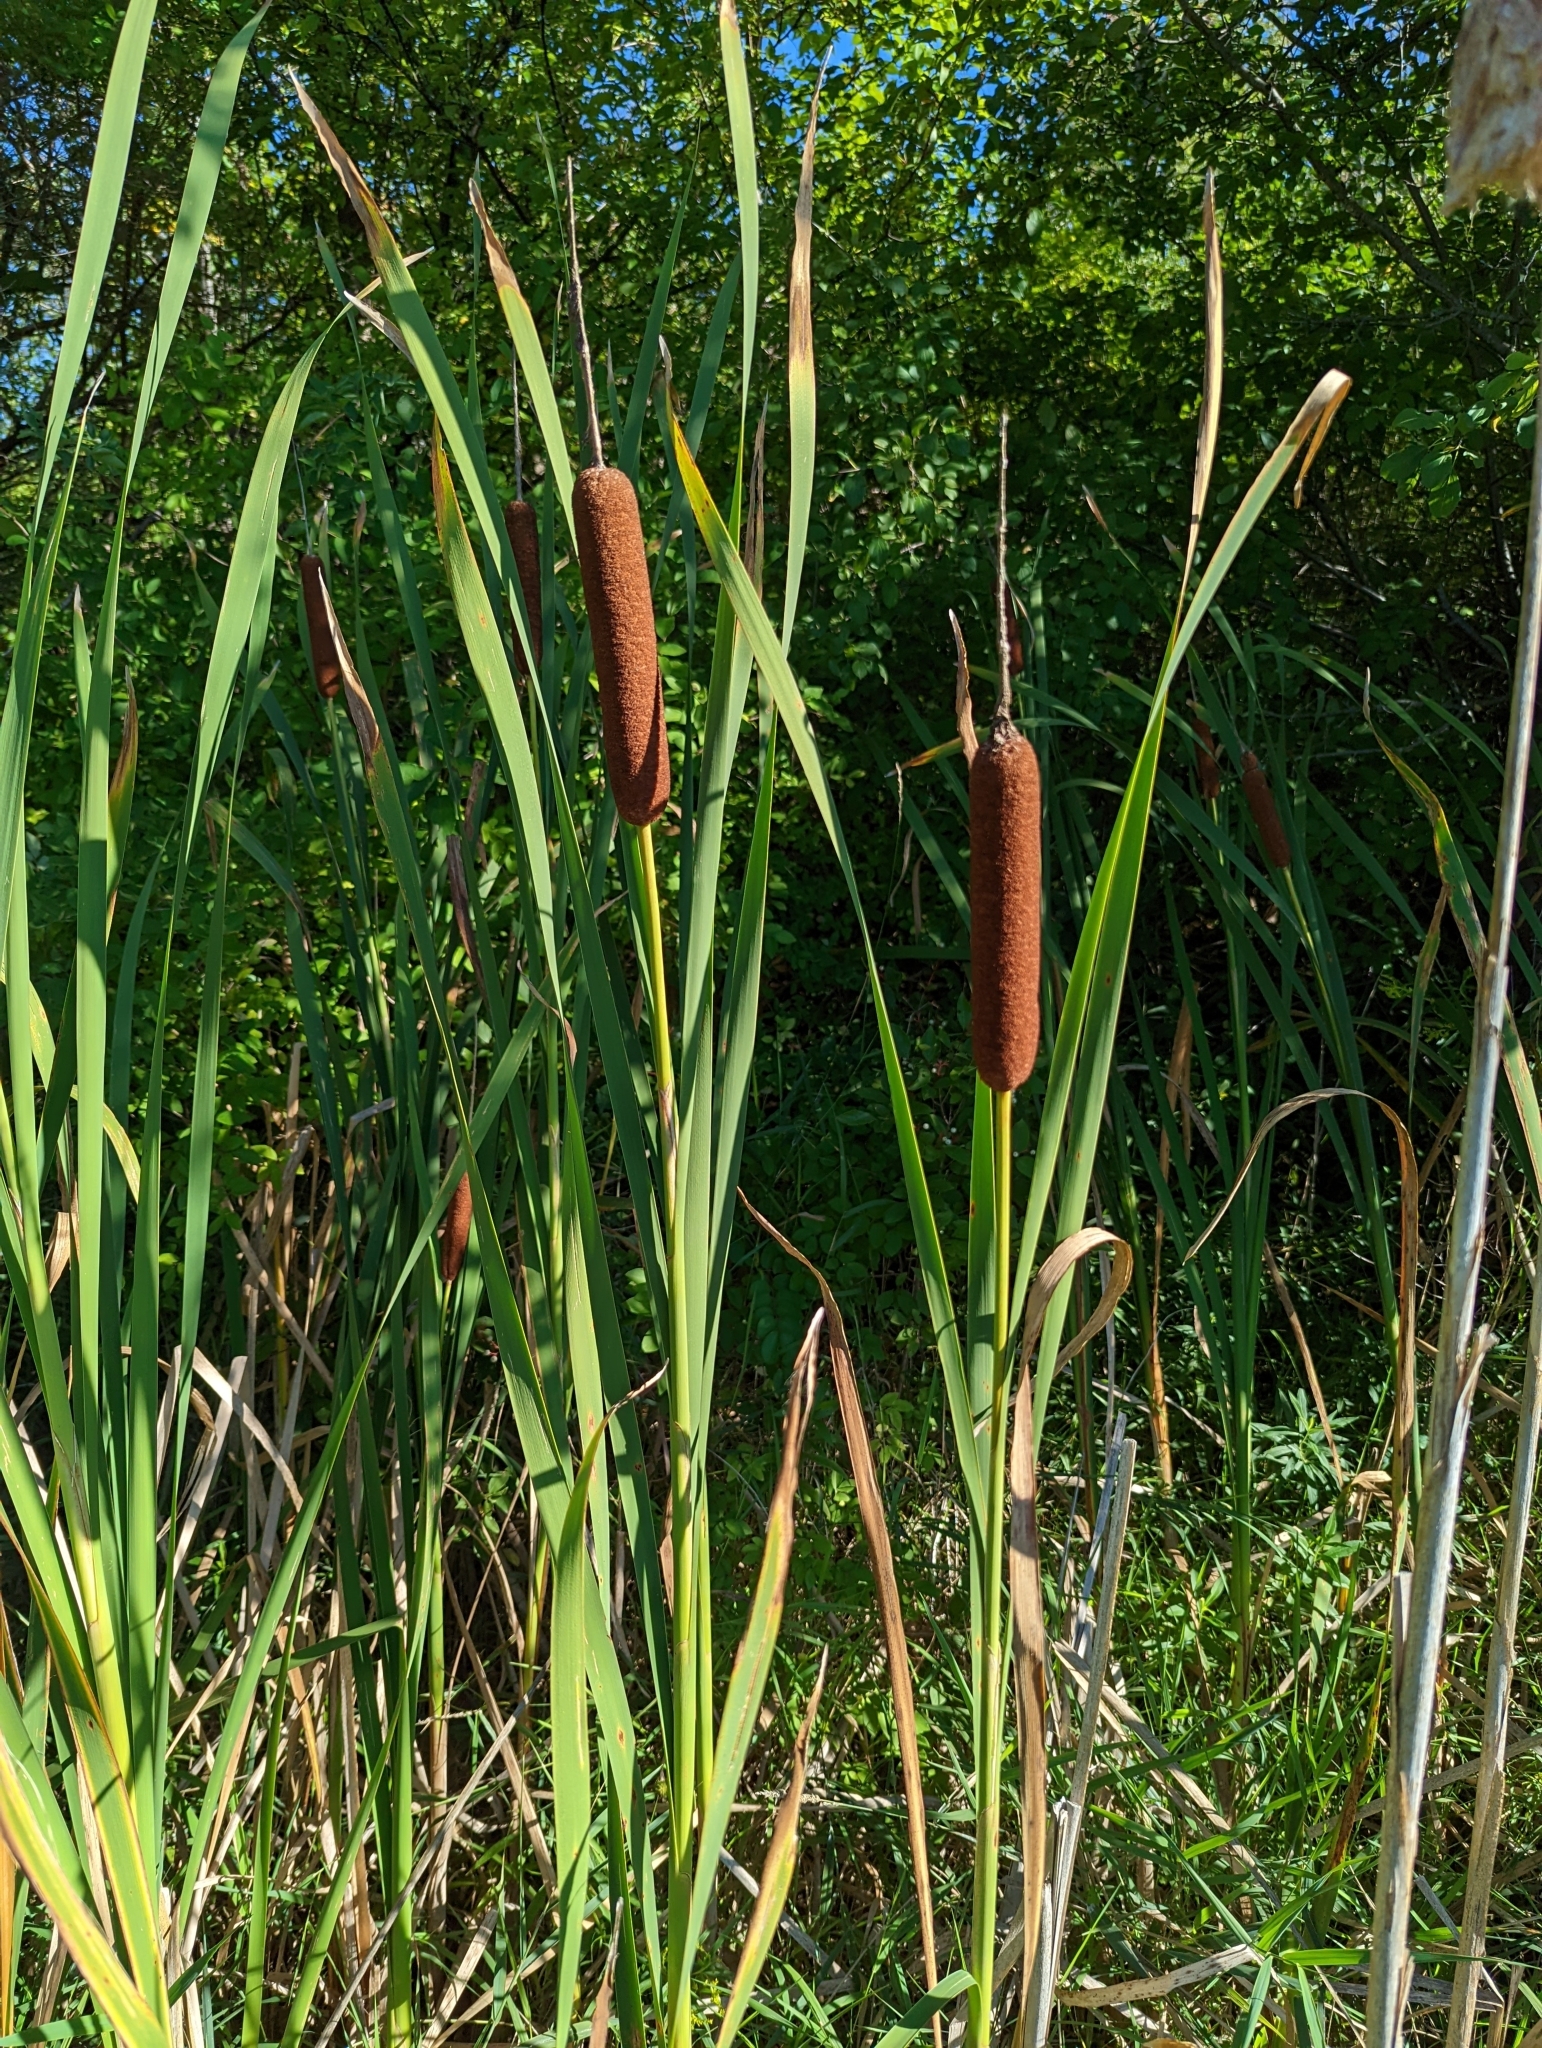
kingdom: Plantae
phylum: Tracheophyta
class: Liliopsida
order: Poales
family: Typhaceae
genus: Typha
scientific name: Typha
